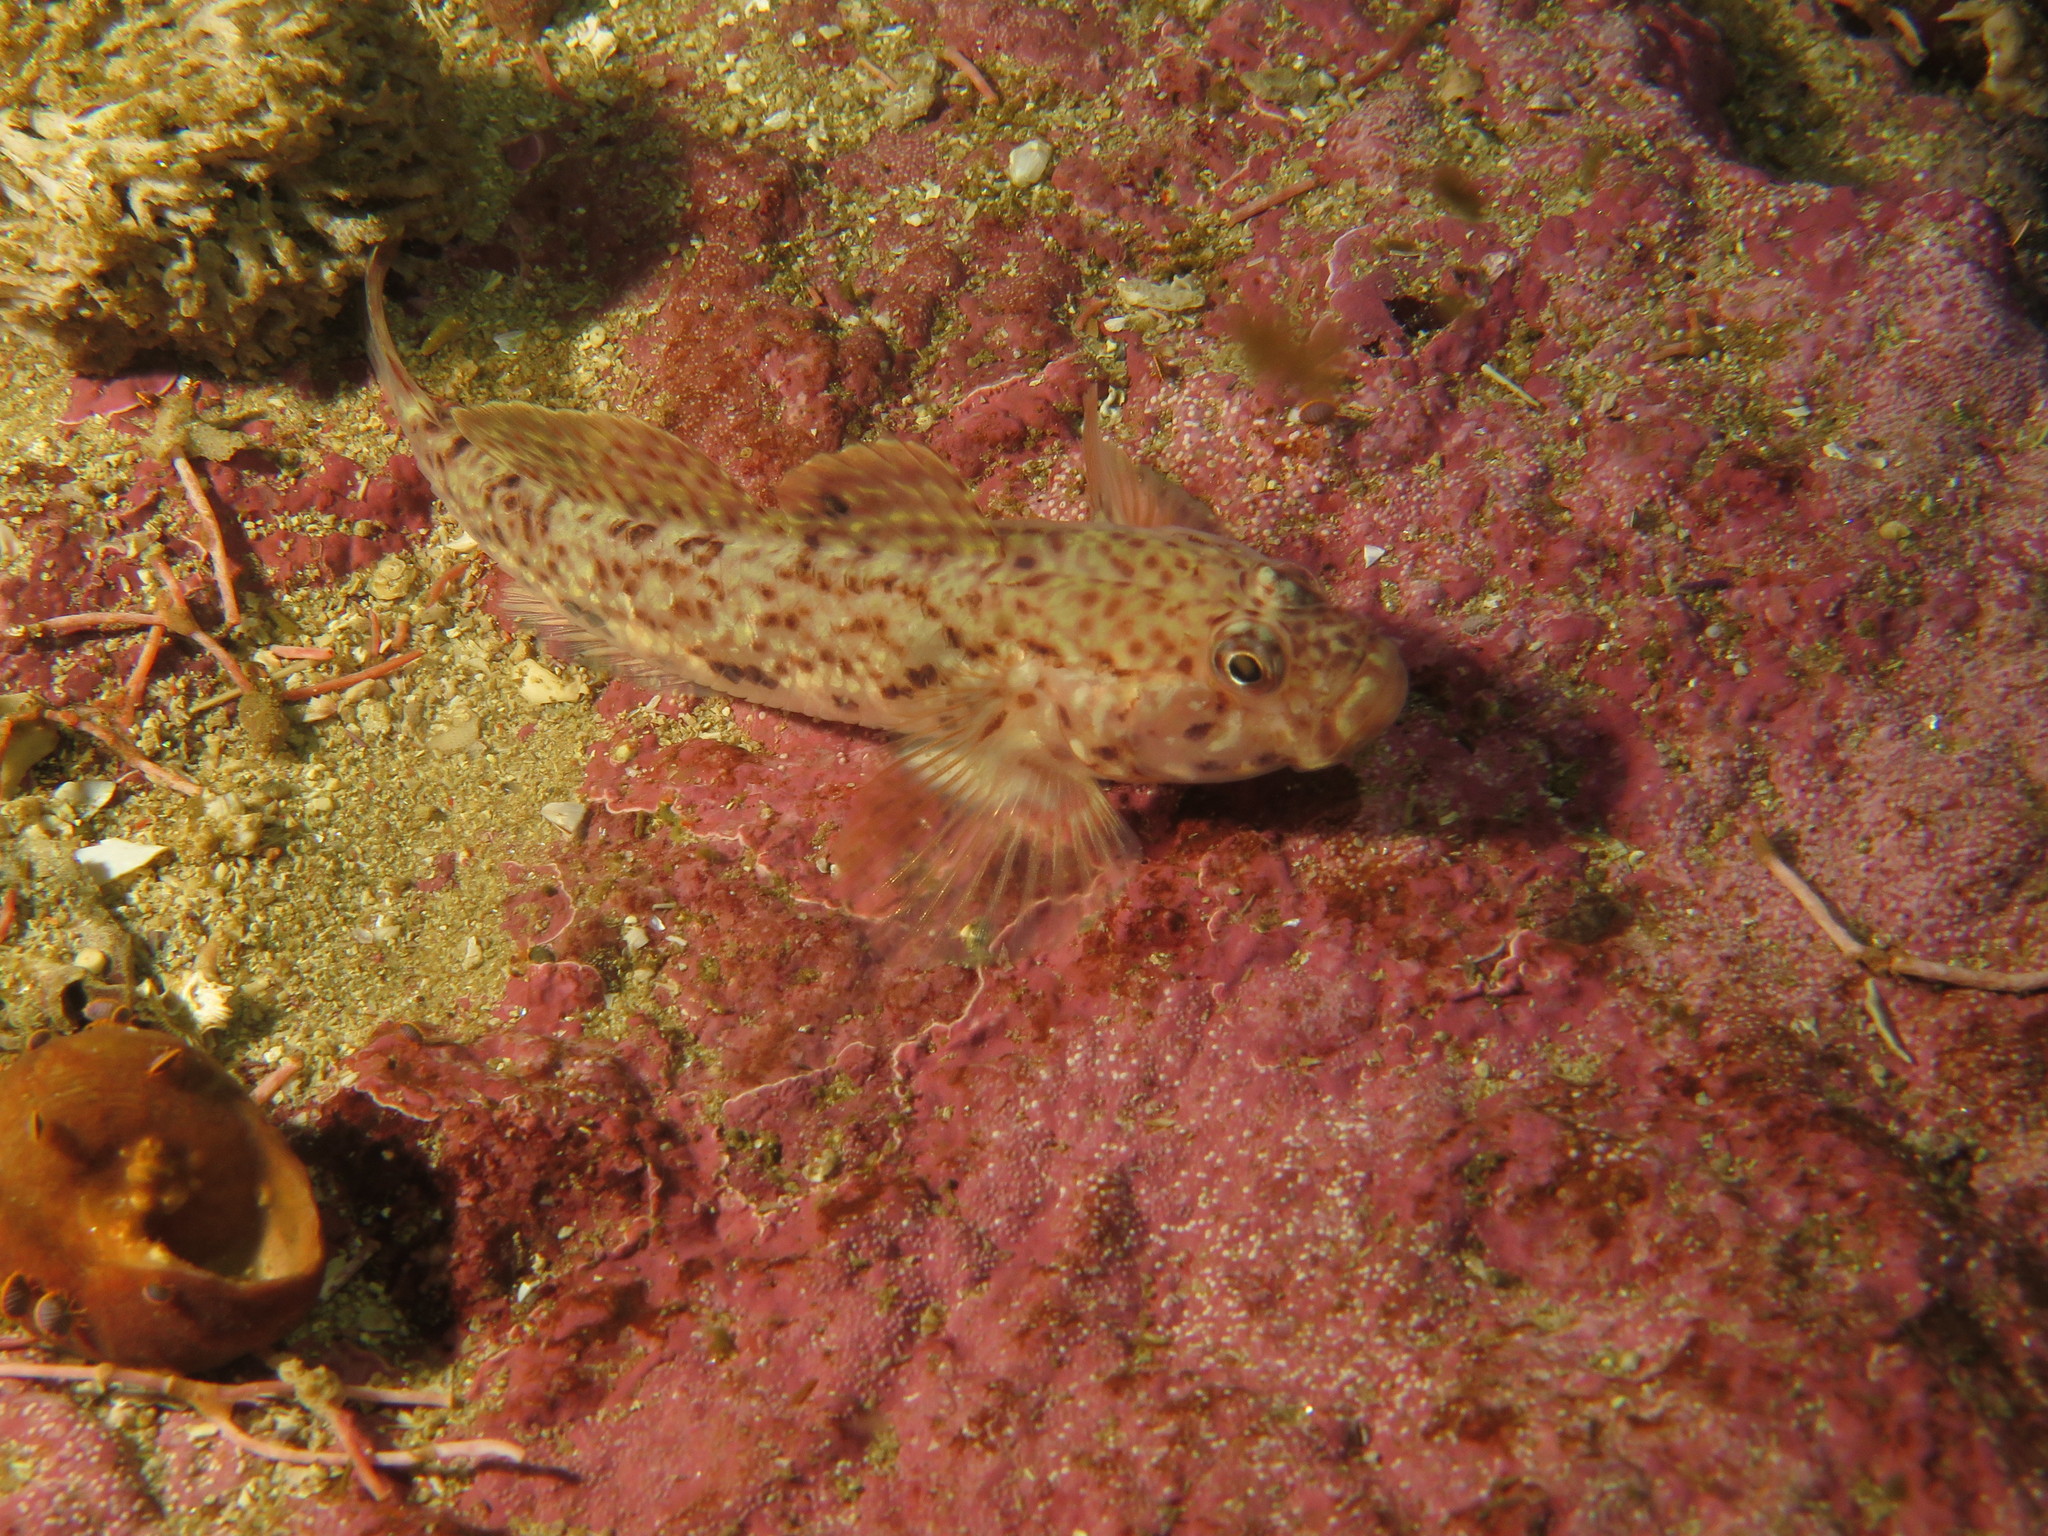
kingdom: Animalia
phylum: Chordata
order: Perciformes
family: Gobiidae
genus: Caffrogobius
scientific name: Caffrogobius saldanha
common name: Commafin goby
